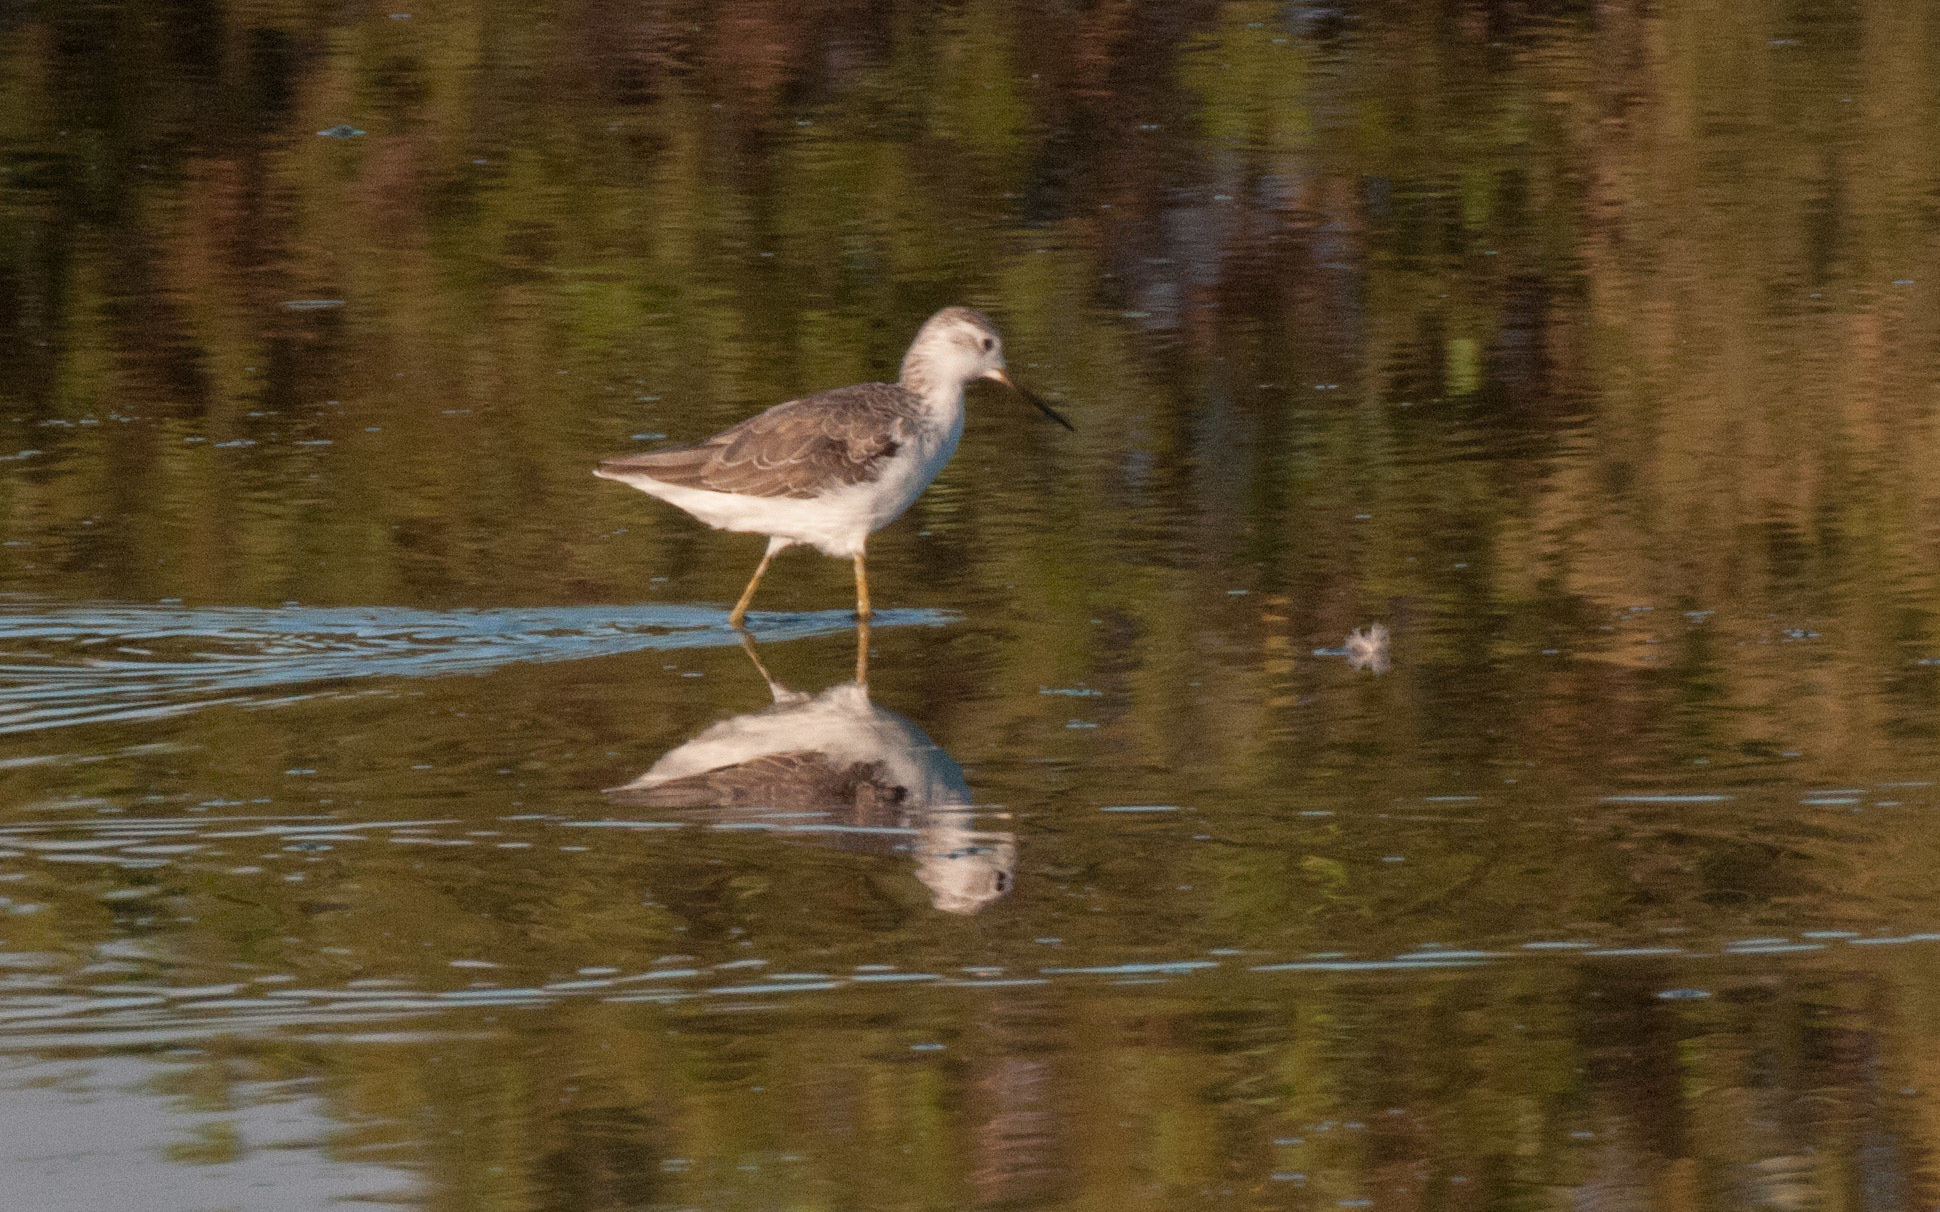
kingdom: Animalia
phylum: Chordata
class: Aves
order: Charadriiformes
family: Scolopacidae
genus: Tringa
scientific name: Tringa nebularia
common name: Common greenshank
